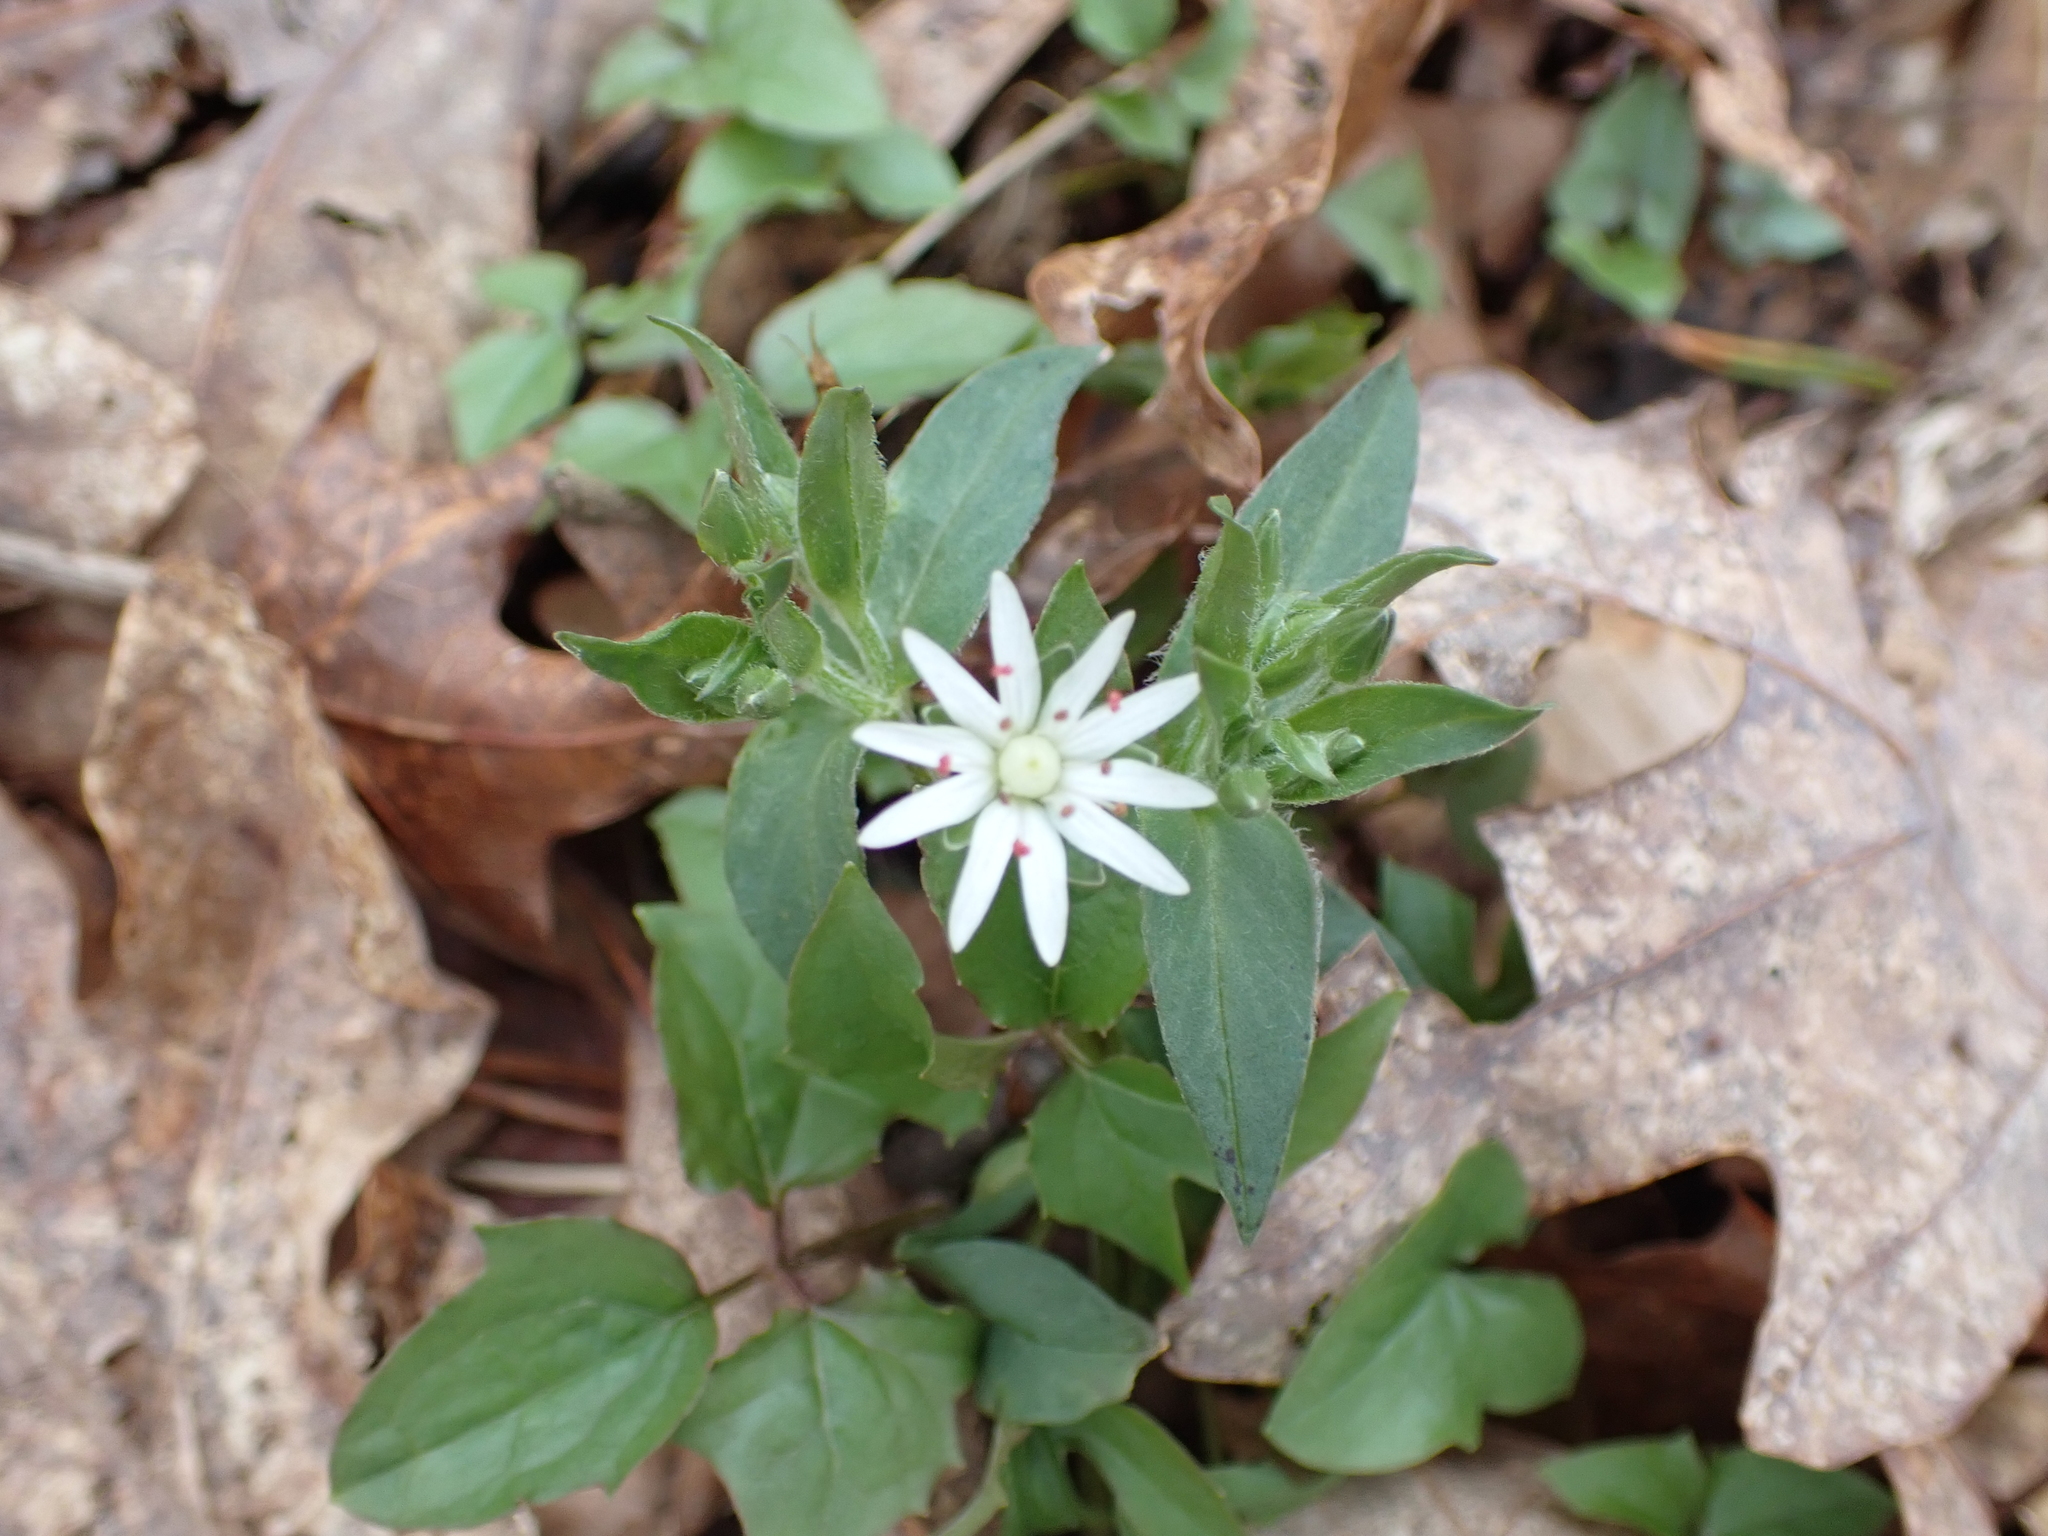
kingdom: Plantae
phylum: Tracheophyta
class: Magnoliopsida
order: Caryophyllales
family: Caryophyllaceae
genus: Stellaria
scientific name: Stellaria pubera
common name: Star chickweed
